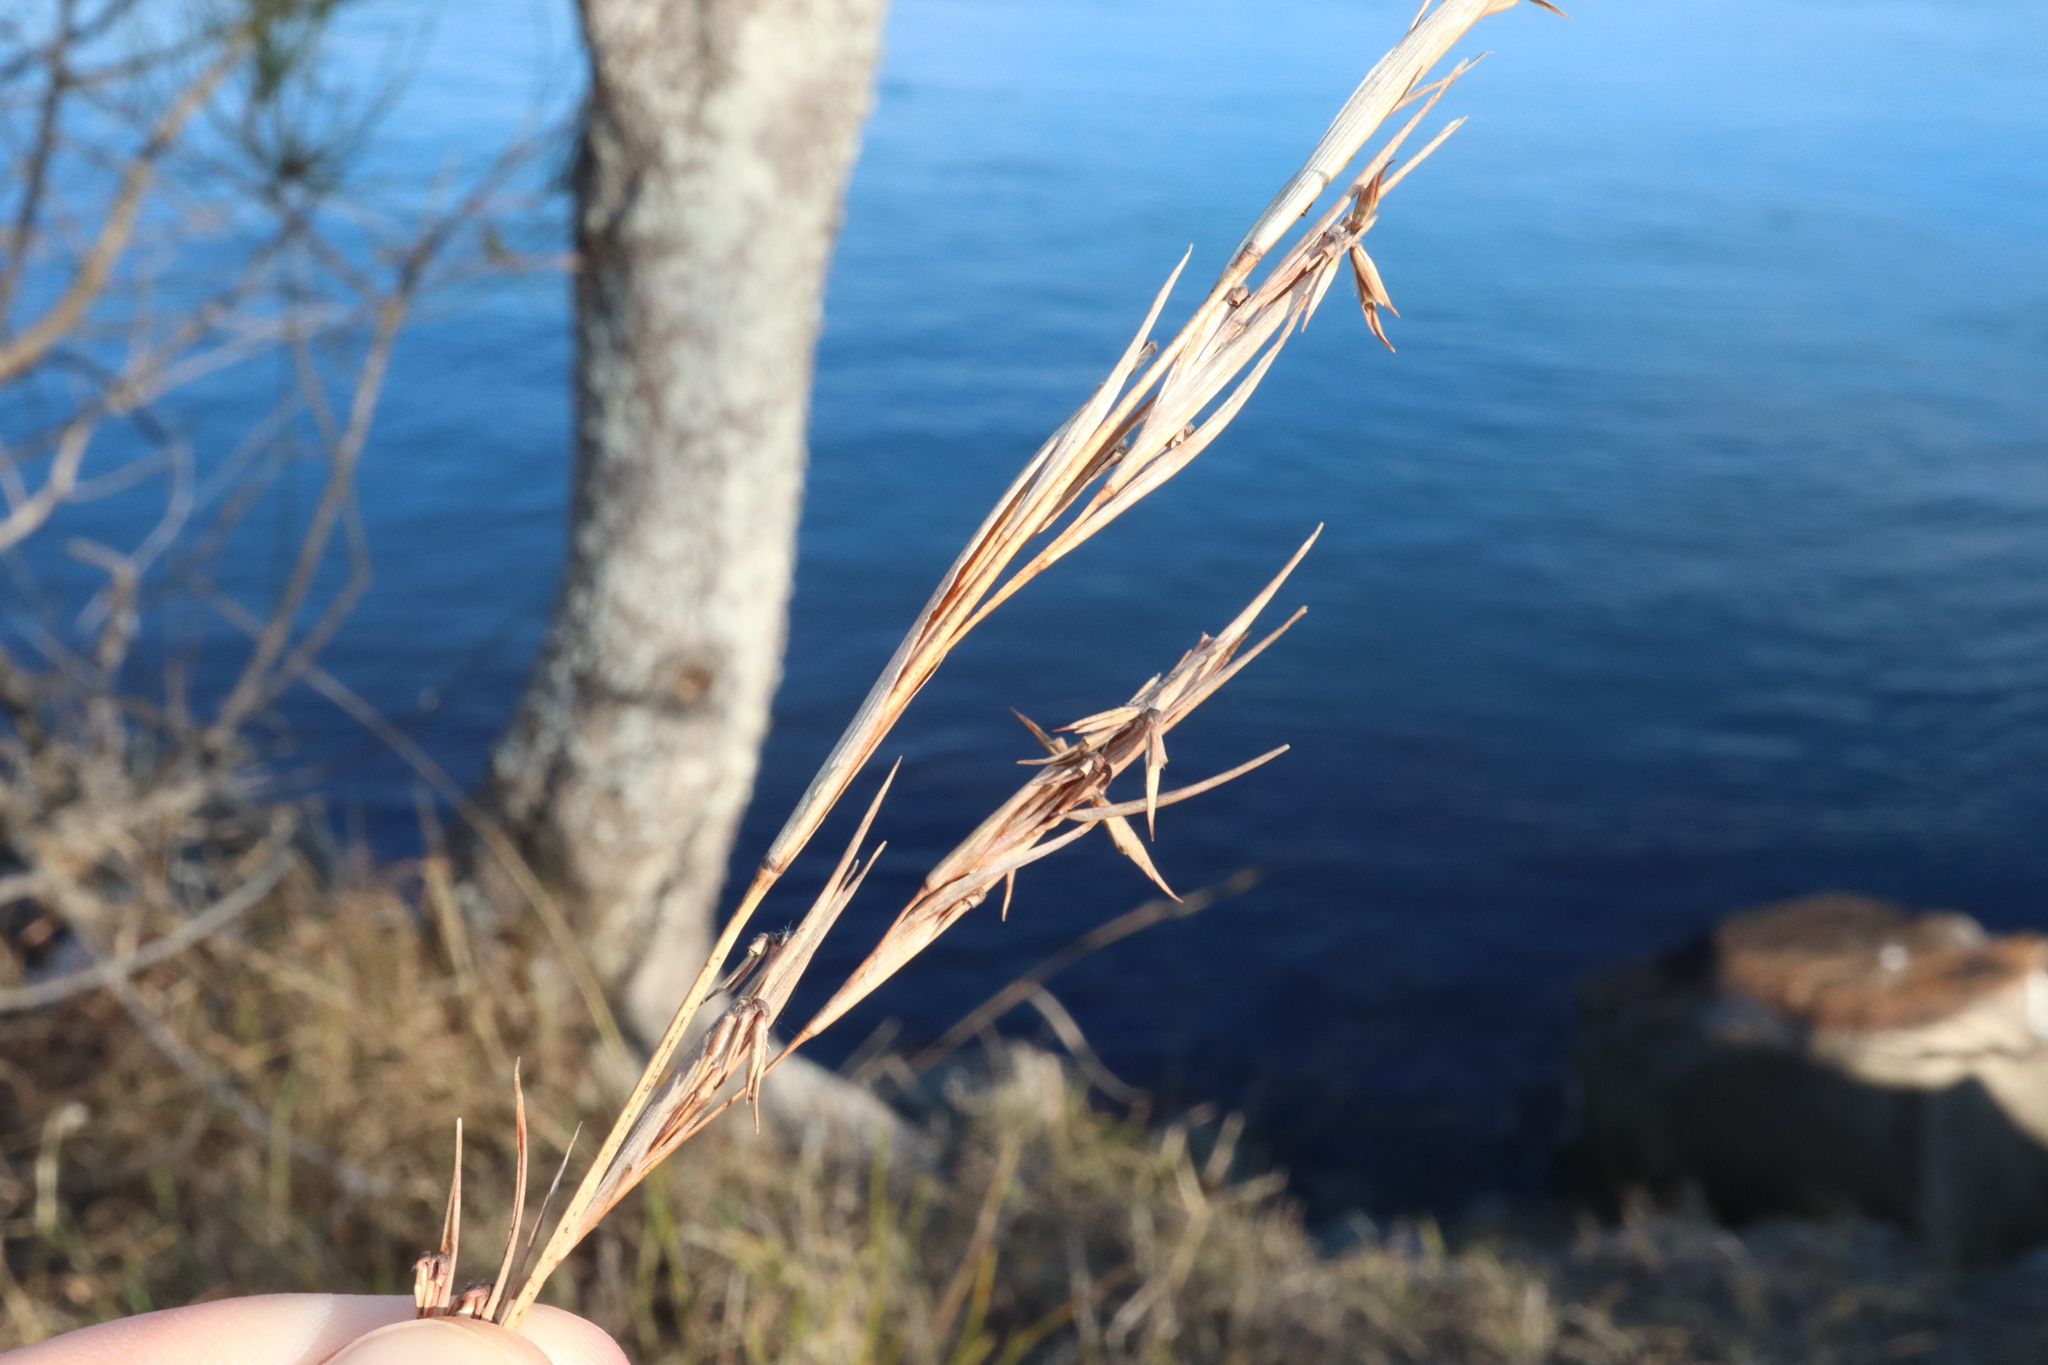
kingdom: Plantae
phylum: Tracheophyta
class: Liliopsida
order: Poales
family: Poaceae
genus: Cymbopogon
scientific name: Cymbopogon refractus
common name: Barbwire grass
